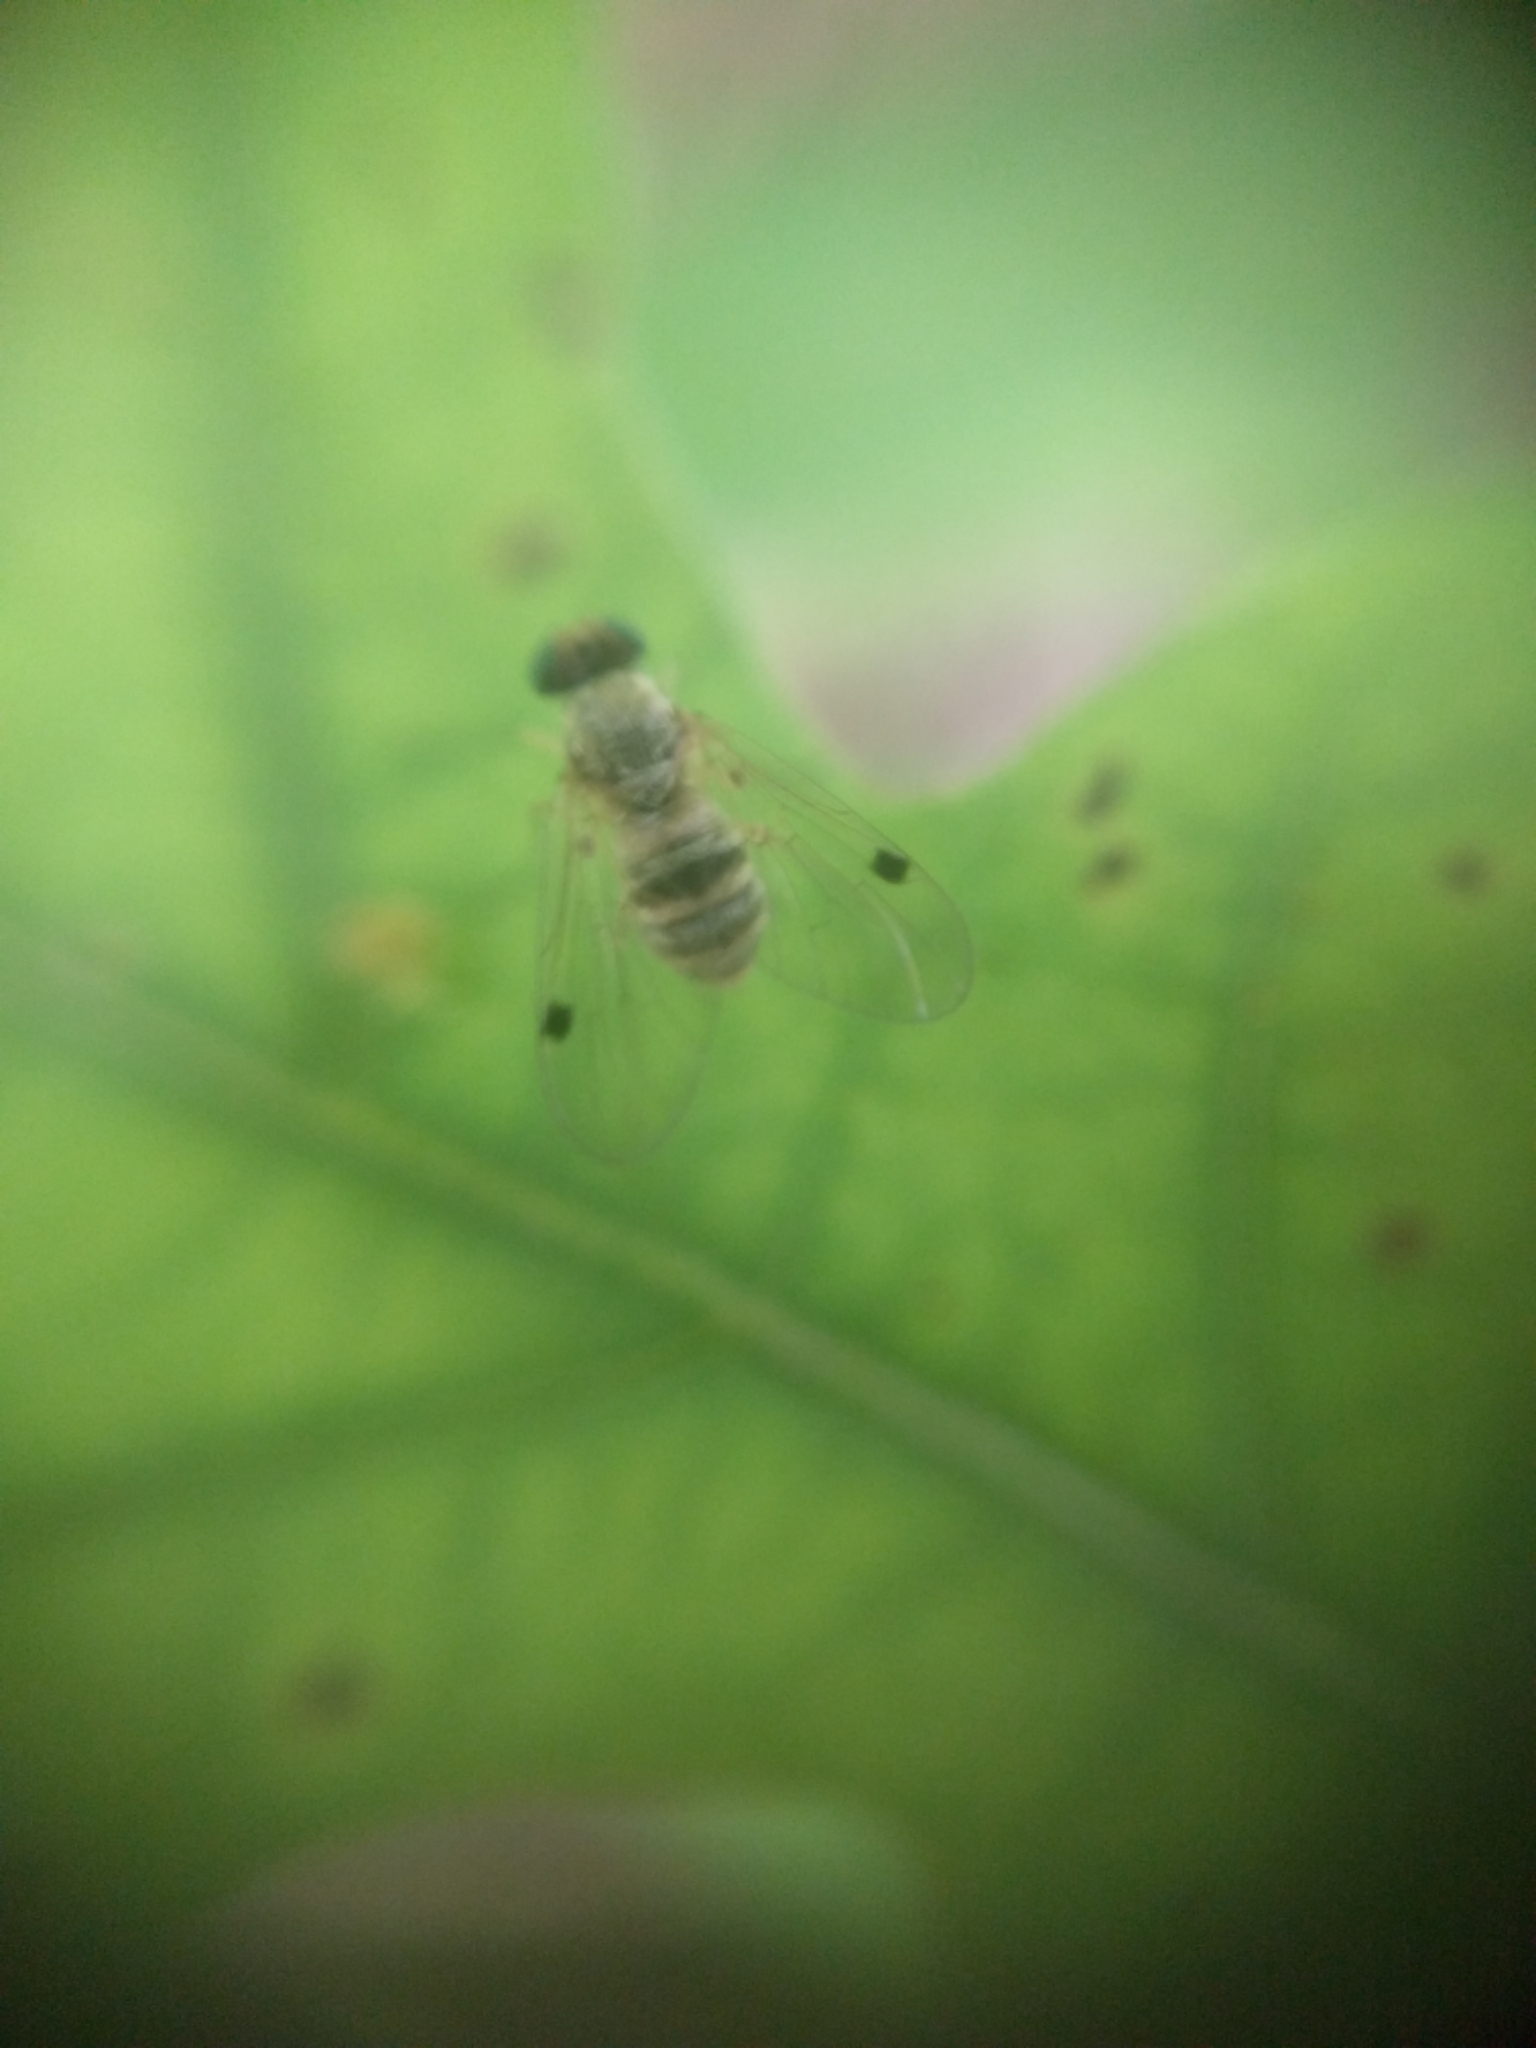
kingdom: Animalia
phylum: Arthropoda
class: Insecta
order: Diptera
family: Rhagionidae
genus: Chrysopilus
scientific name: Chrysopilus modestus
